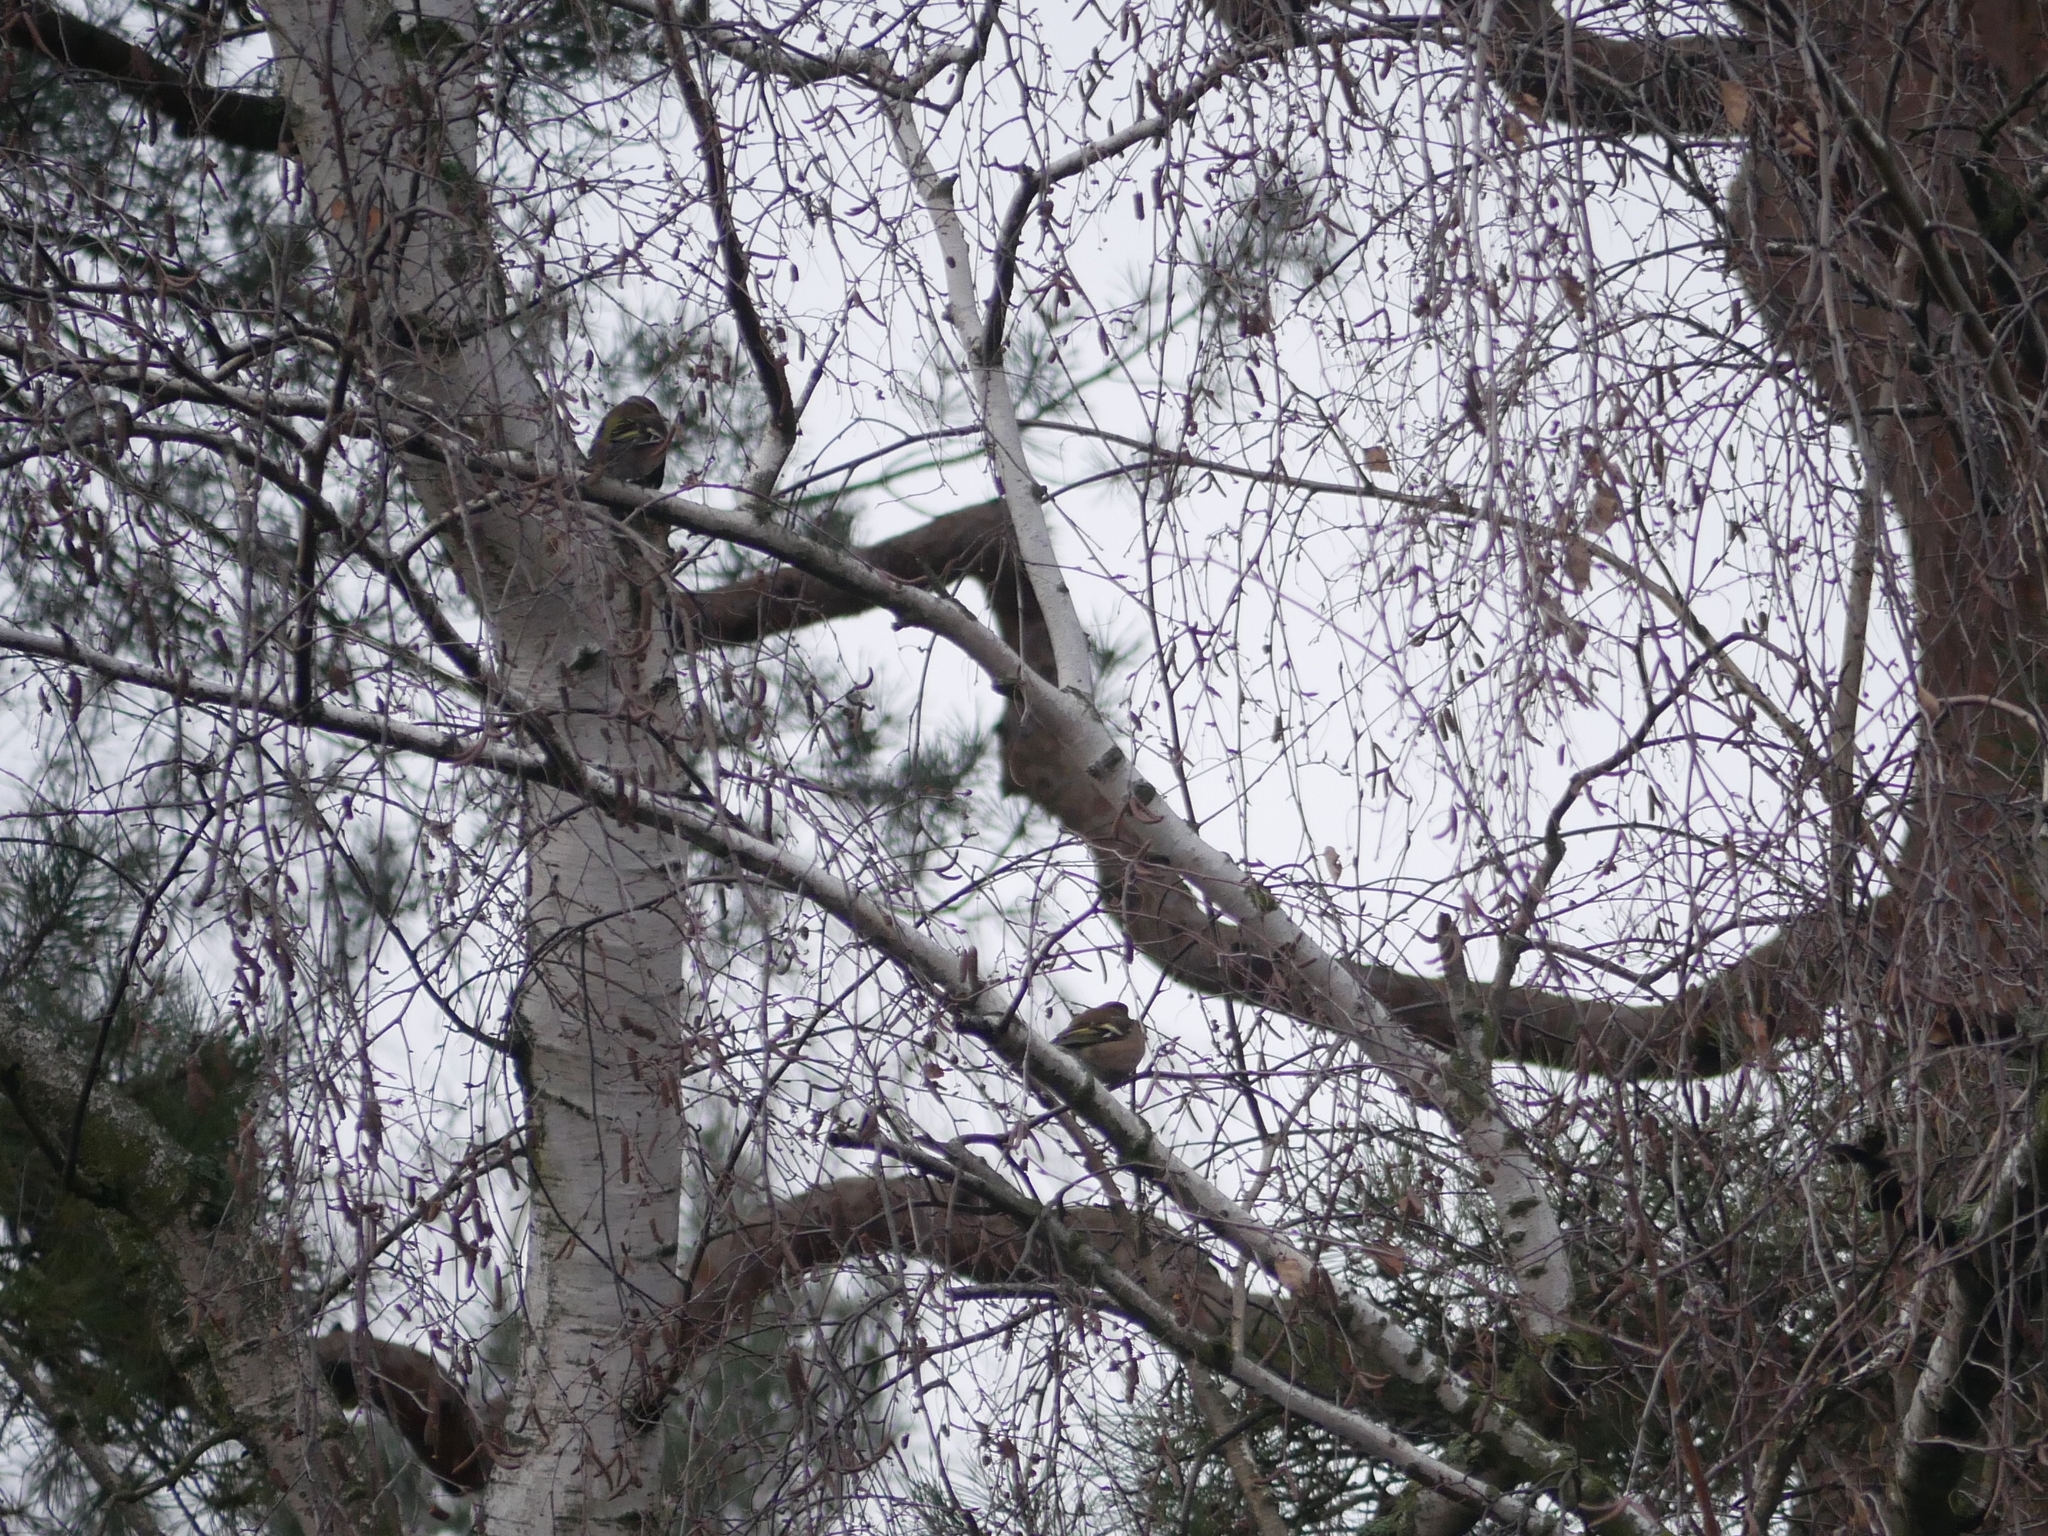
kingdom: Animalia
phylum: Chordata
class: Aves
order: Passeriformes
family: Fringillidae
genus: Fringilla
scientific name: Fringilla coelebs
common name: Common chaffinch
